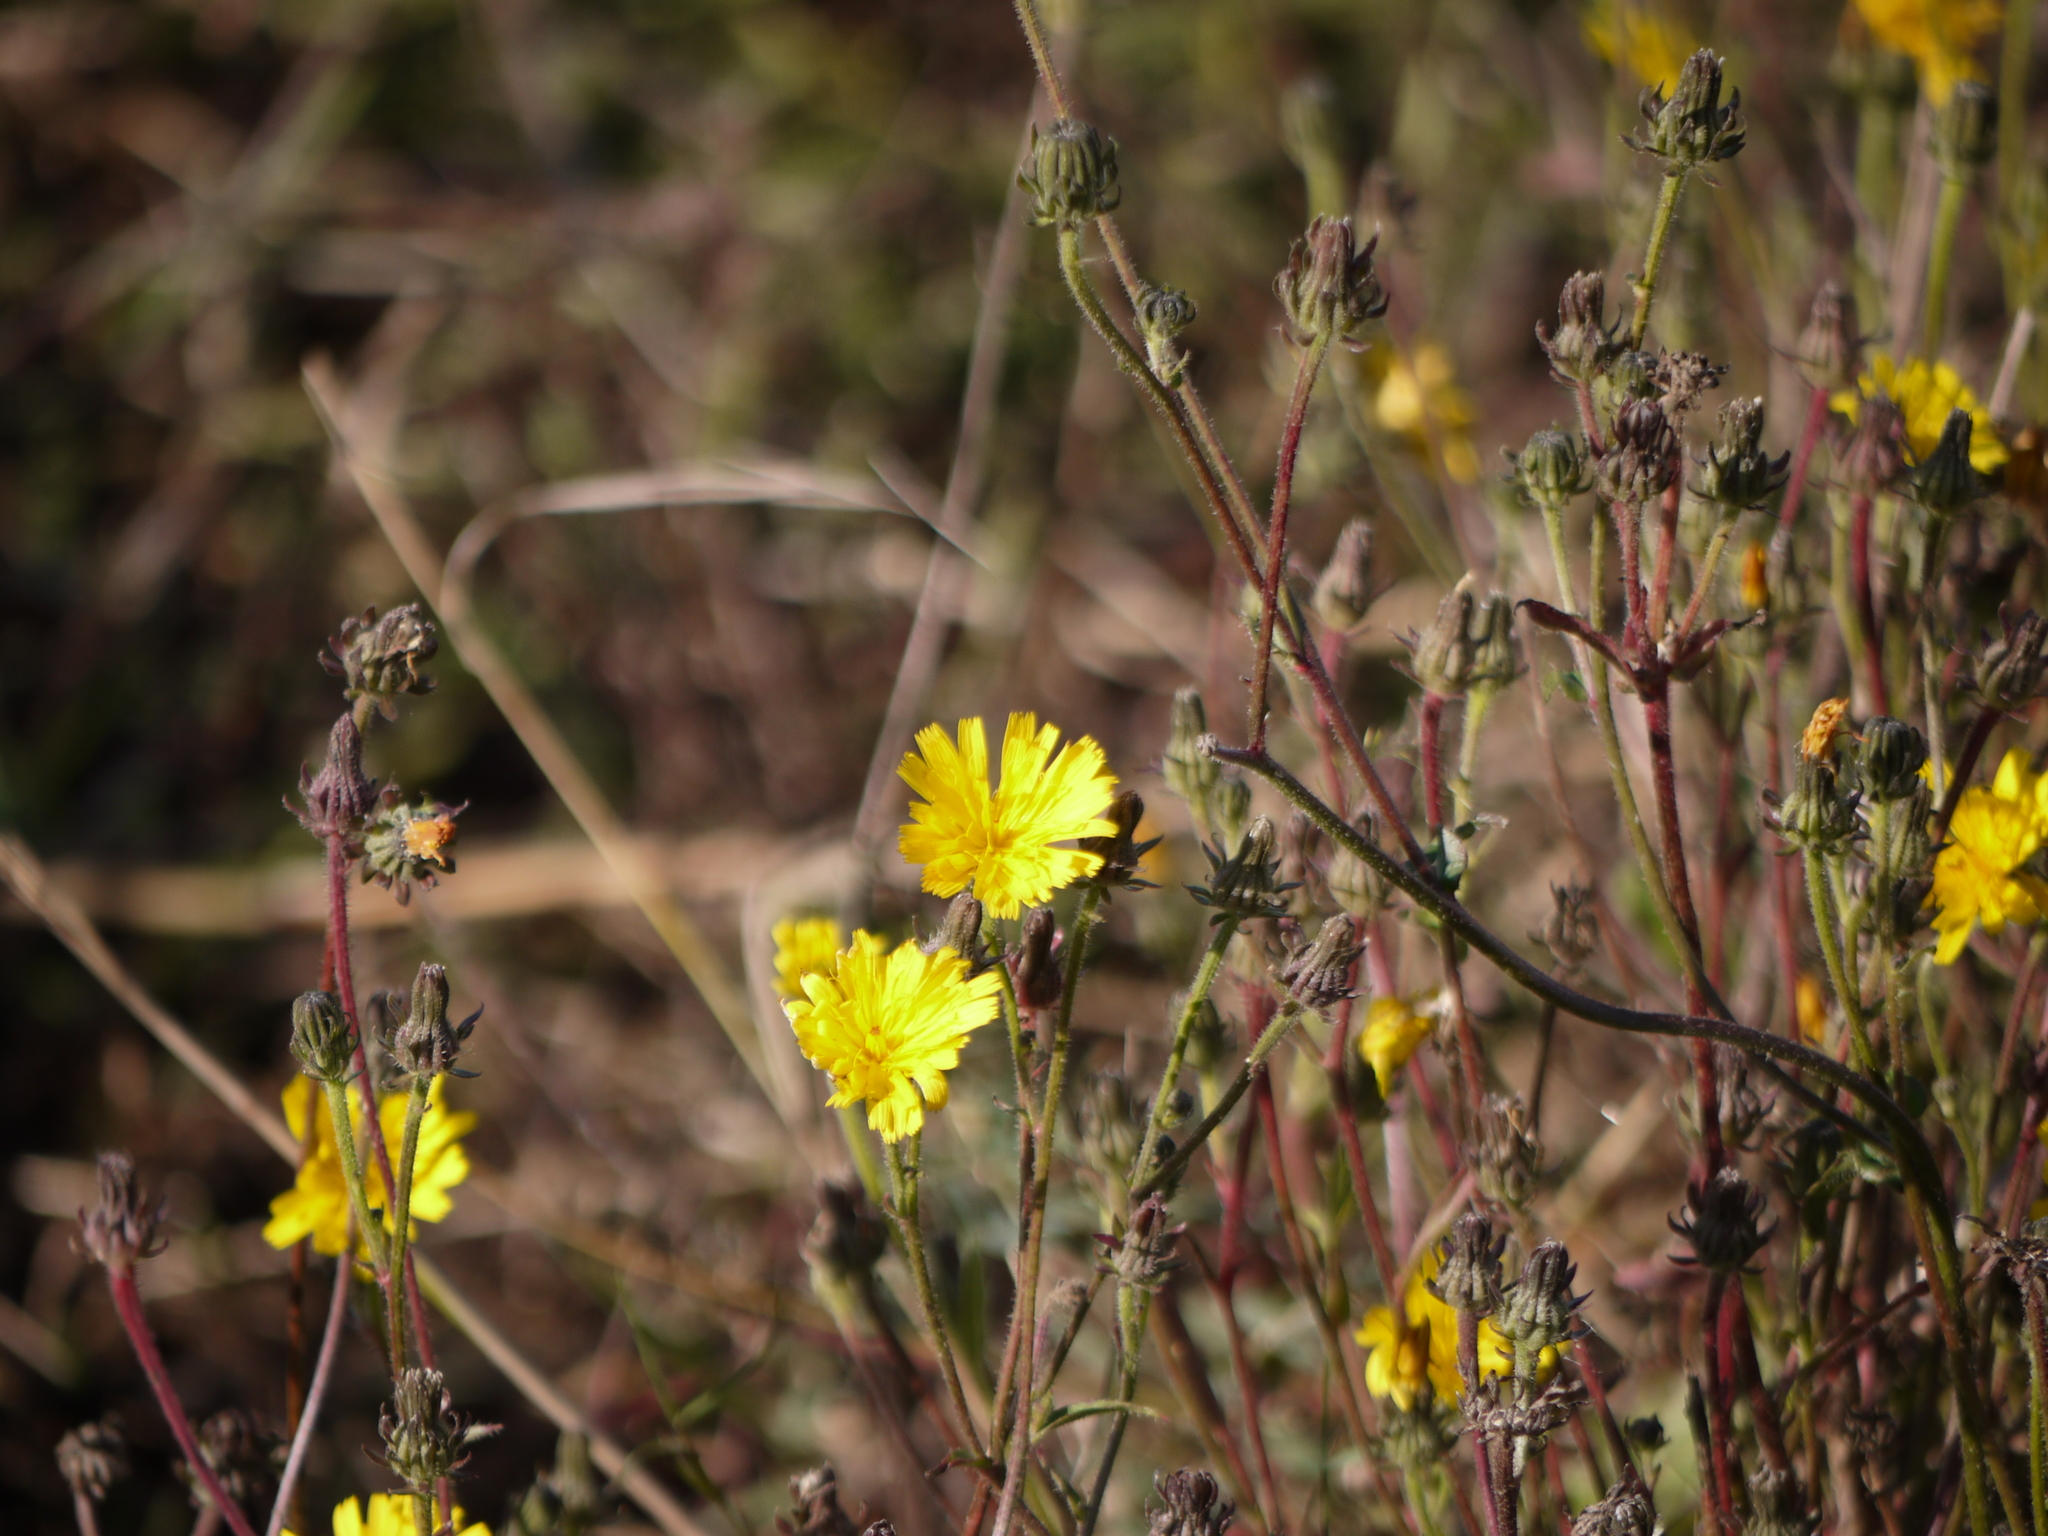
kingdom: Plantae
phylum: Tracheophyta
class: Magnoliopsida
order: Asterales
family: Asteraceae
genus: Picris
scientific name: Picris hieracioides
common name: Hawkweed oxtongue
